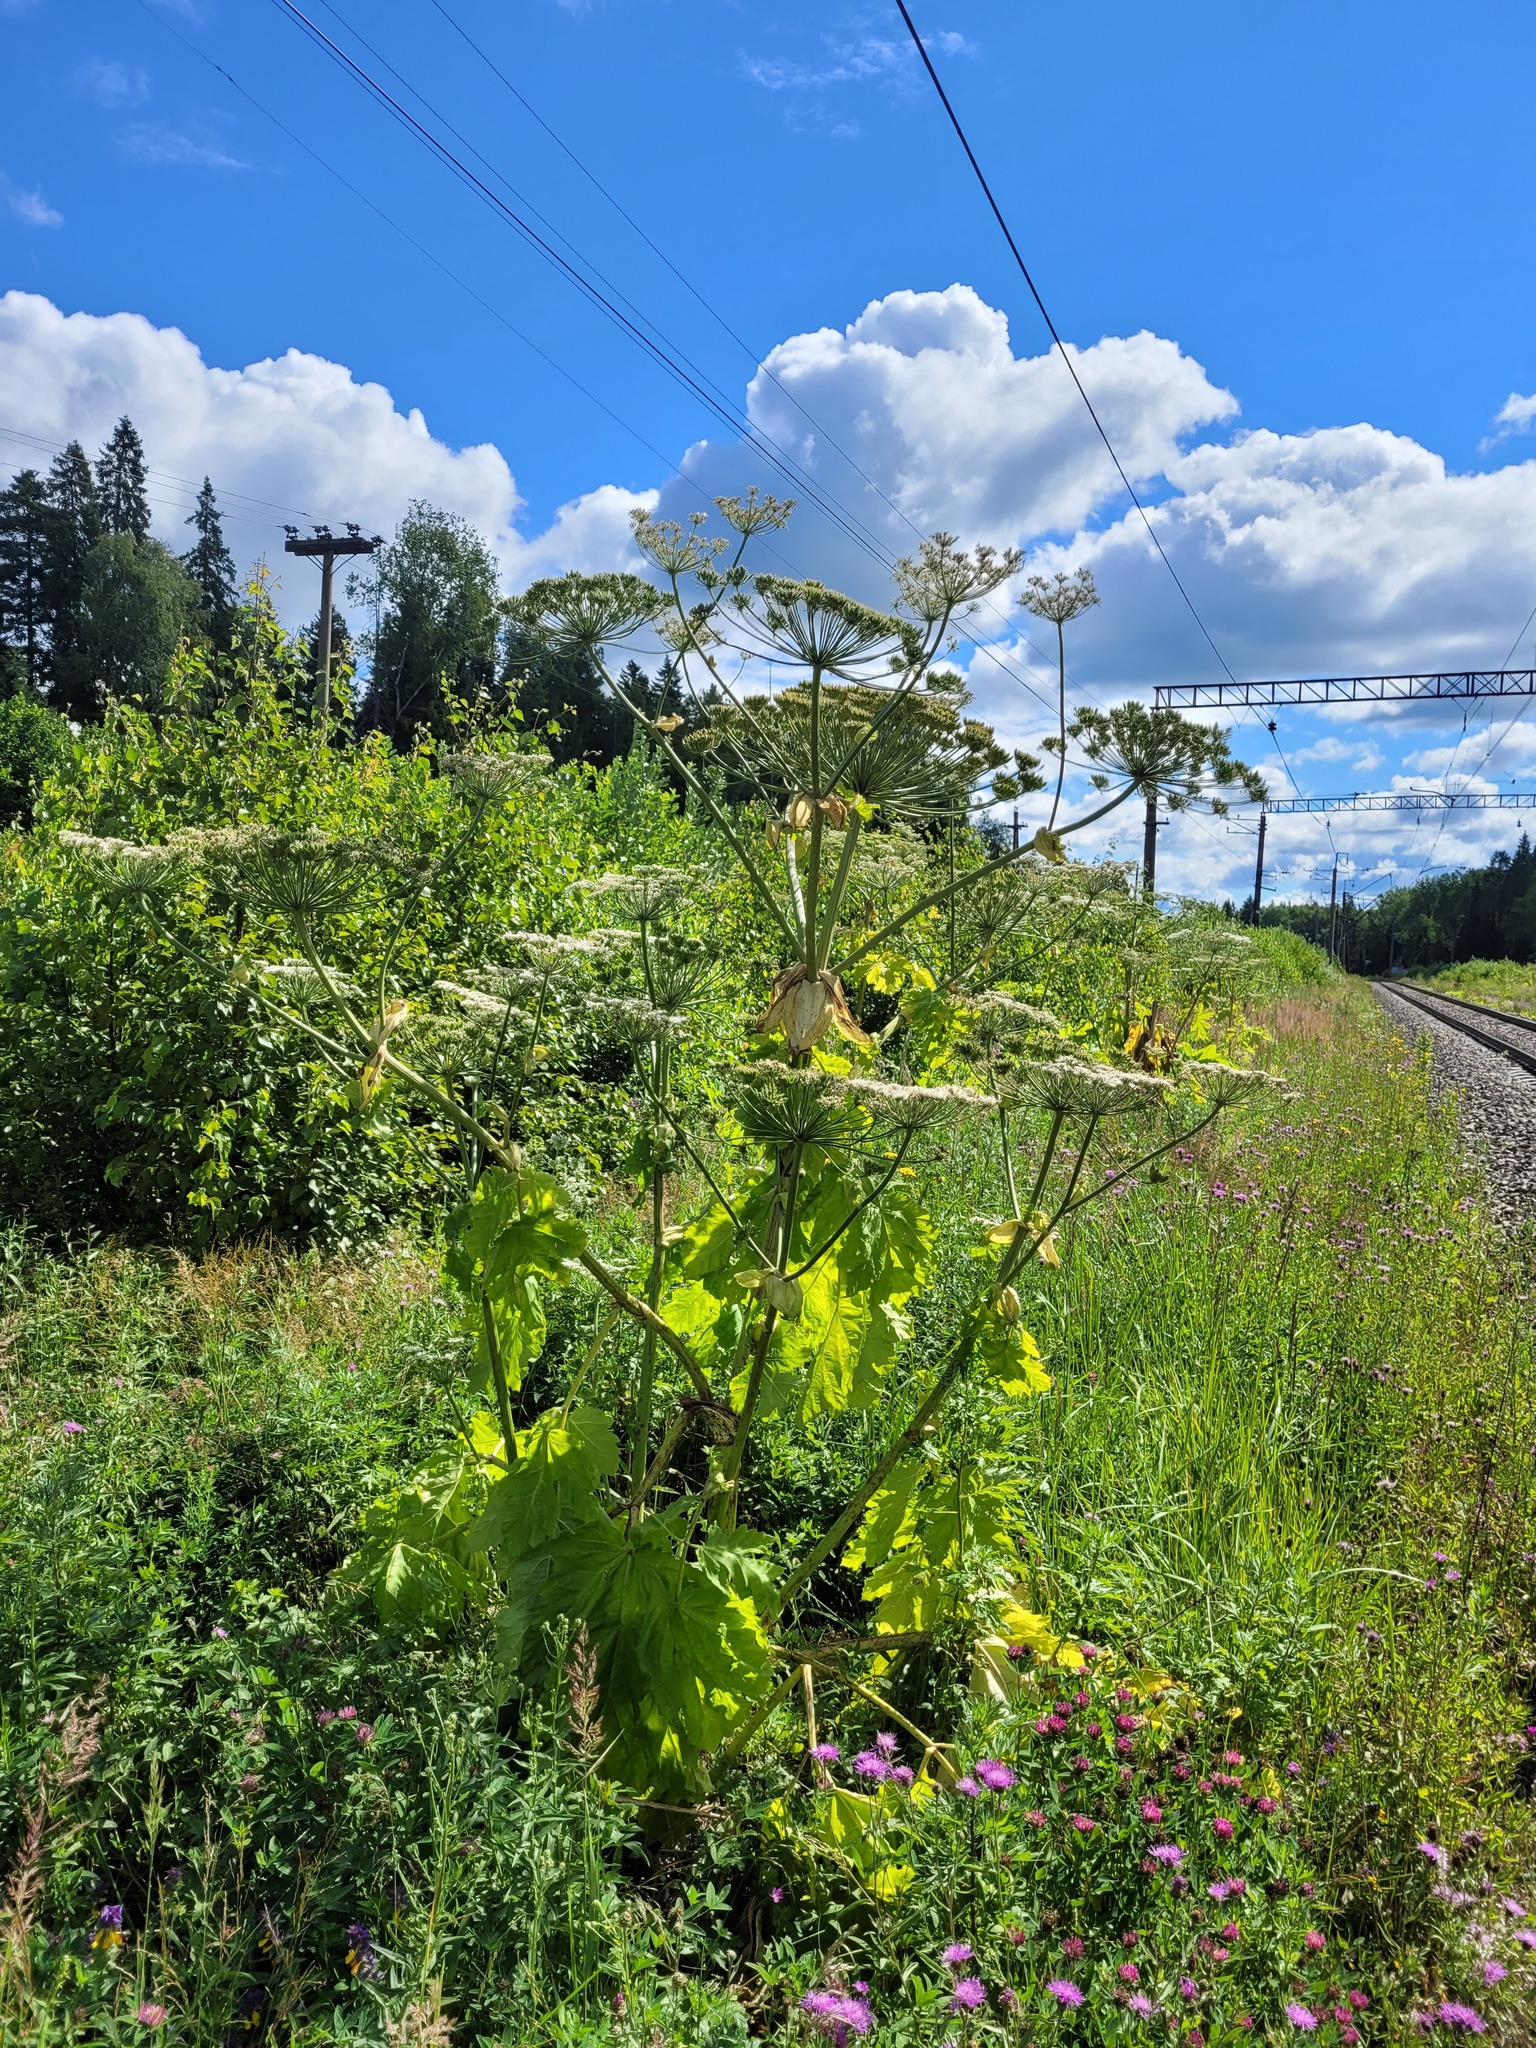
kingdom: Plantae
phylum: Tracheophyta
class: Magnoliopsida
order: Apiales
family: Apiaceae
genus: Heracleum
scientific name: Heracleum sosnowskyi
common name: Sosnowsky's hogweed
